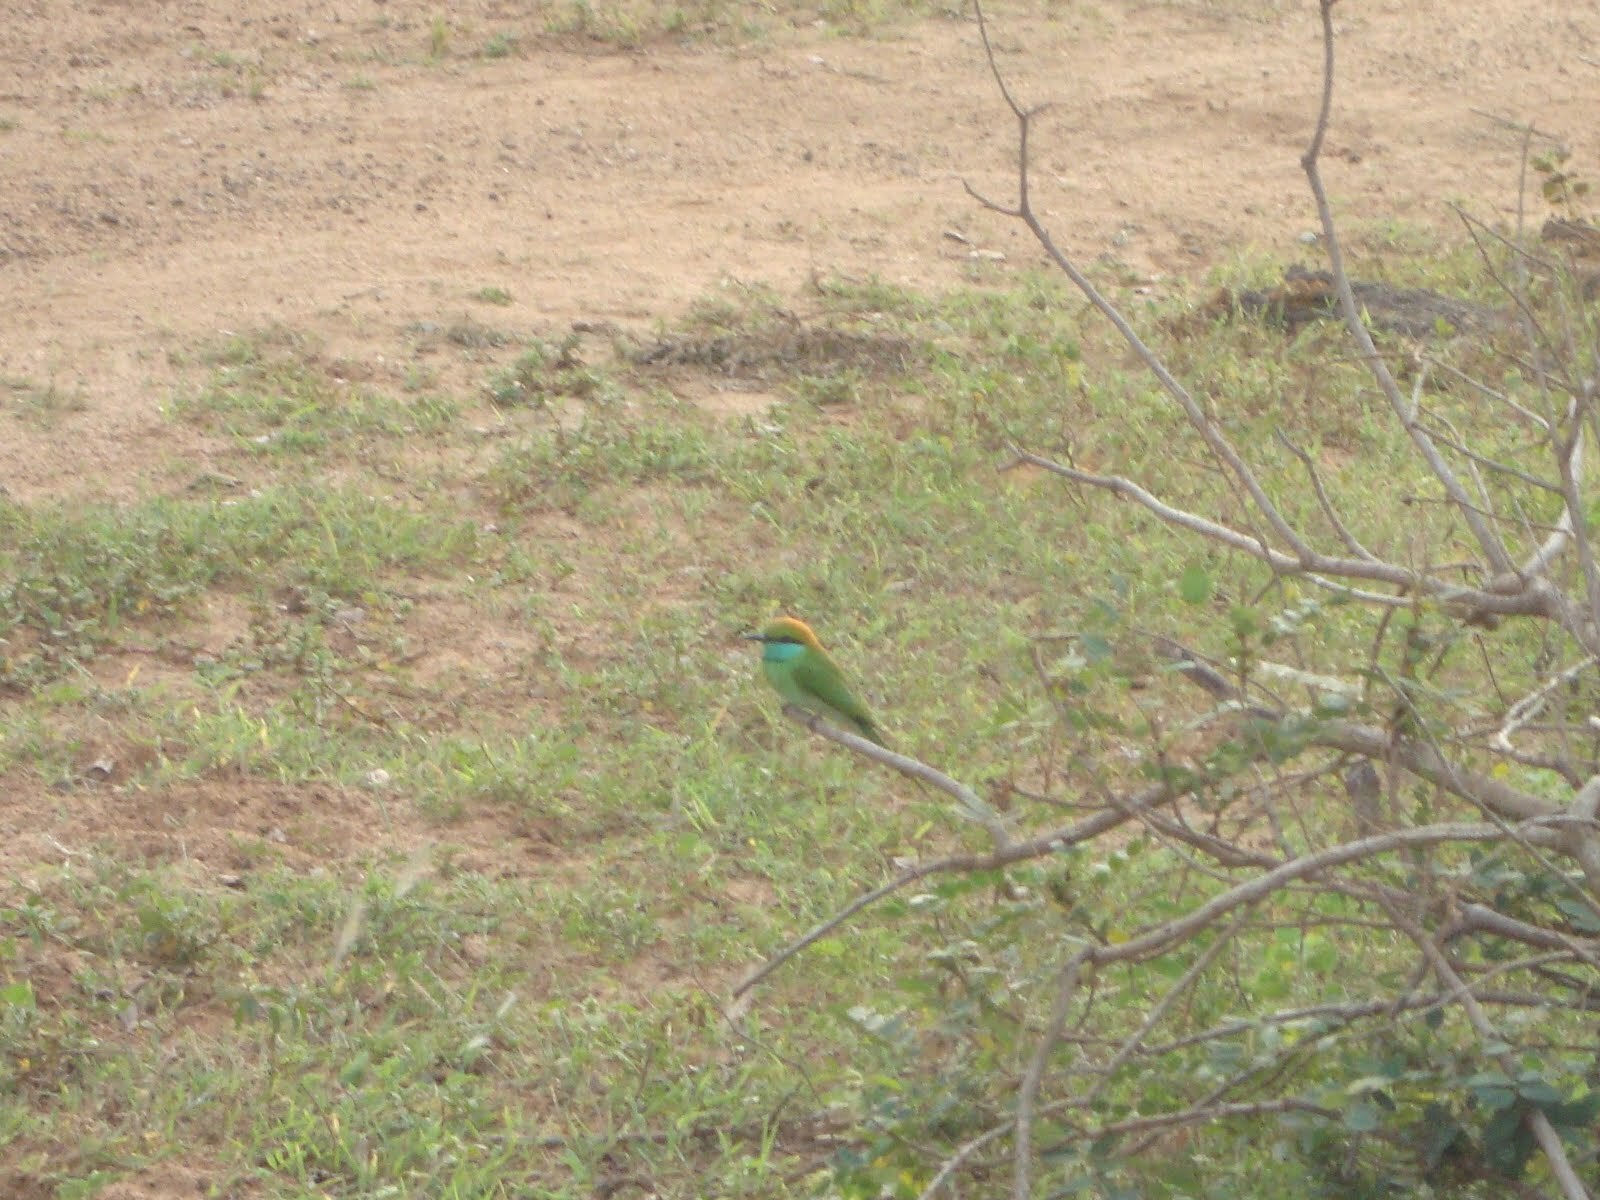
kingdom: Animalia
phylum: Chordata
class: Aves
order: Coraciiformes
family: Meropidae
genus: Merops
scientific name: Merops orientalis
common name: Green bee-eater
